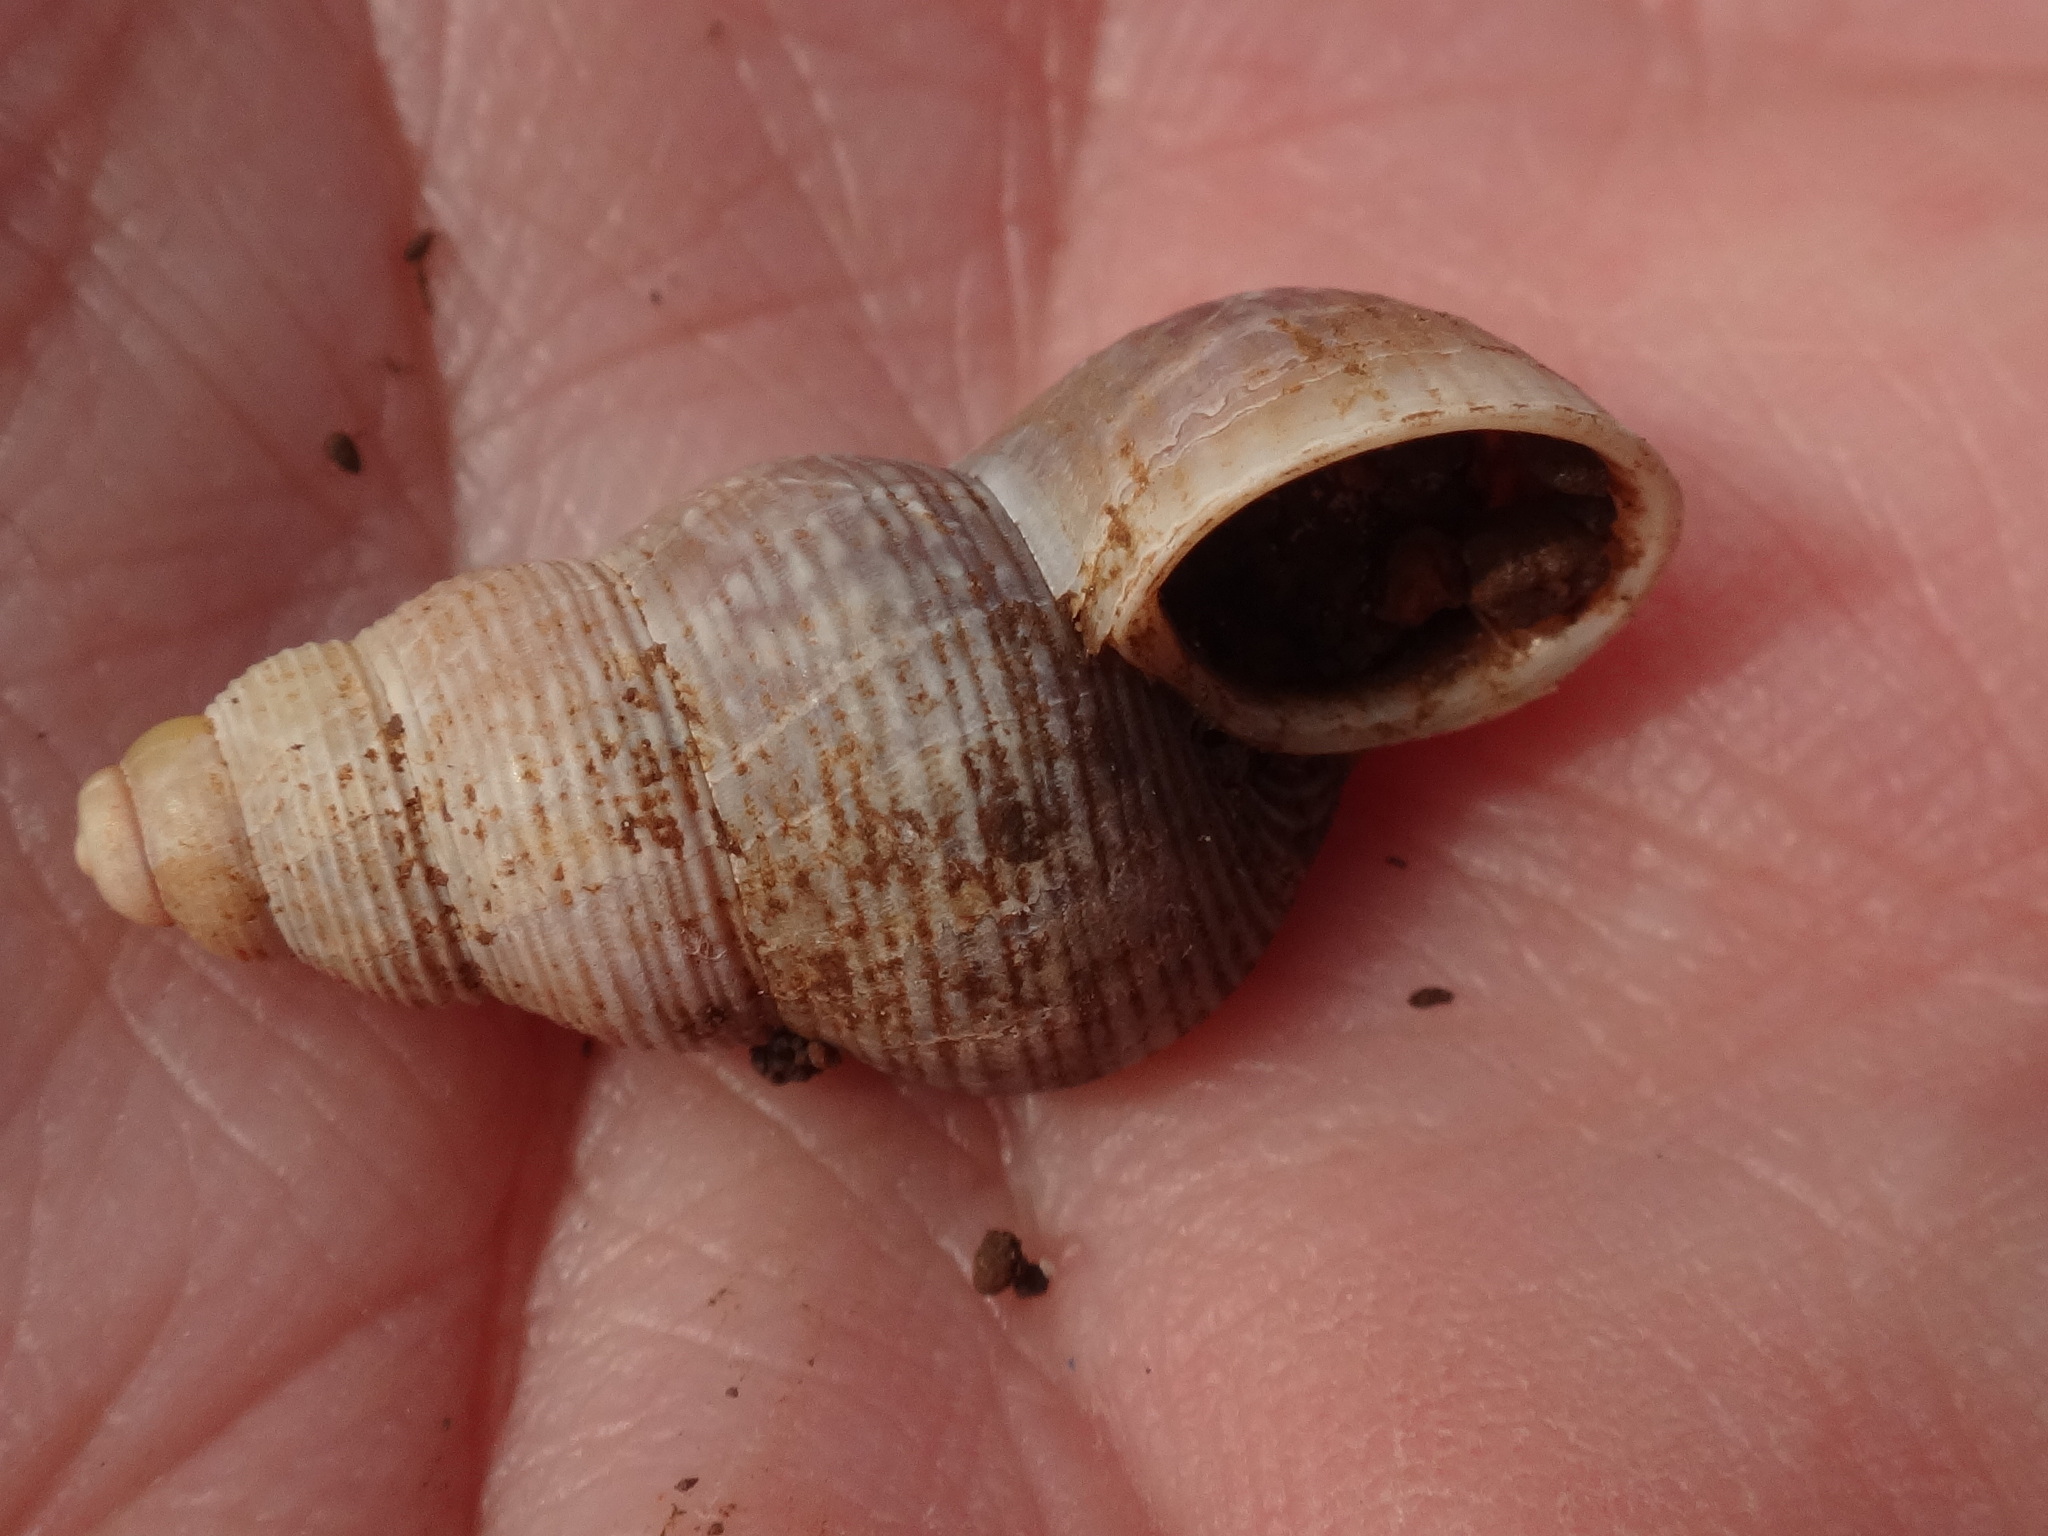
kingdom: Animalia
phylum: Mollusca
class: Gastropoda
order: Littorinimorpha
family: Pomatiidae
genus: Tudorella
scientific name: Tudorella ferruginea
